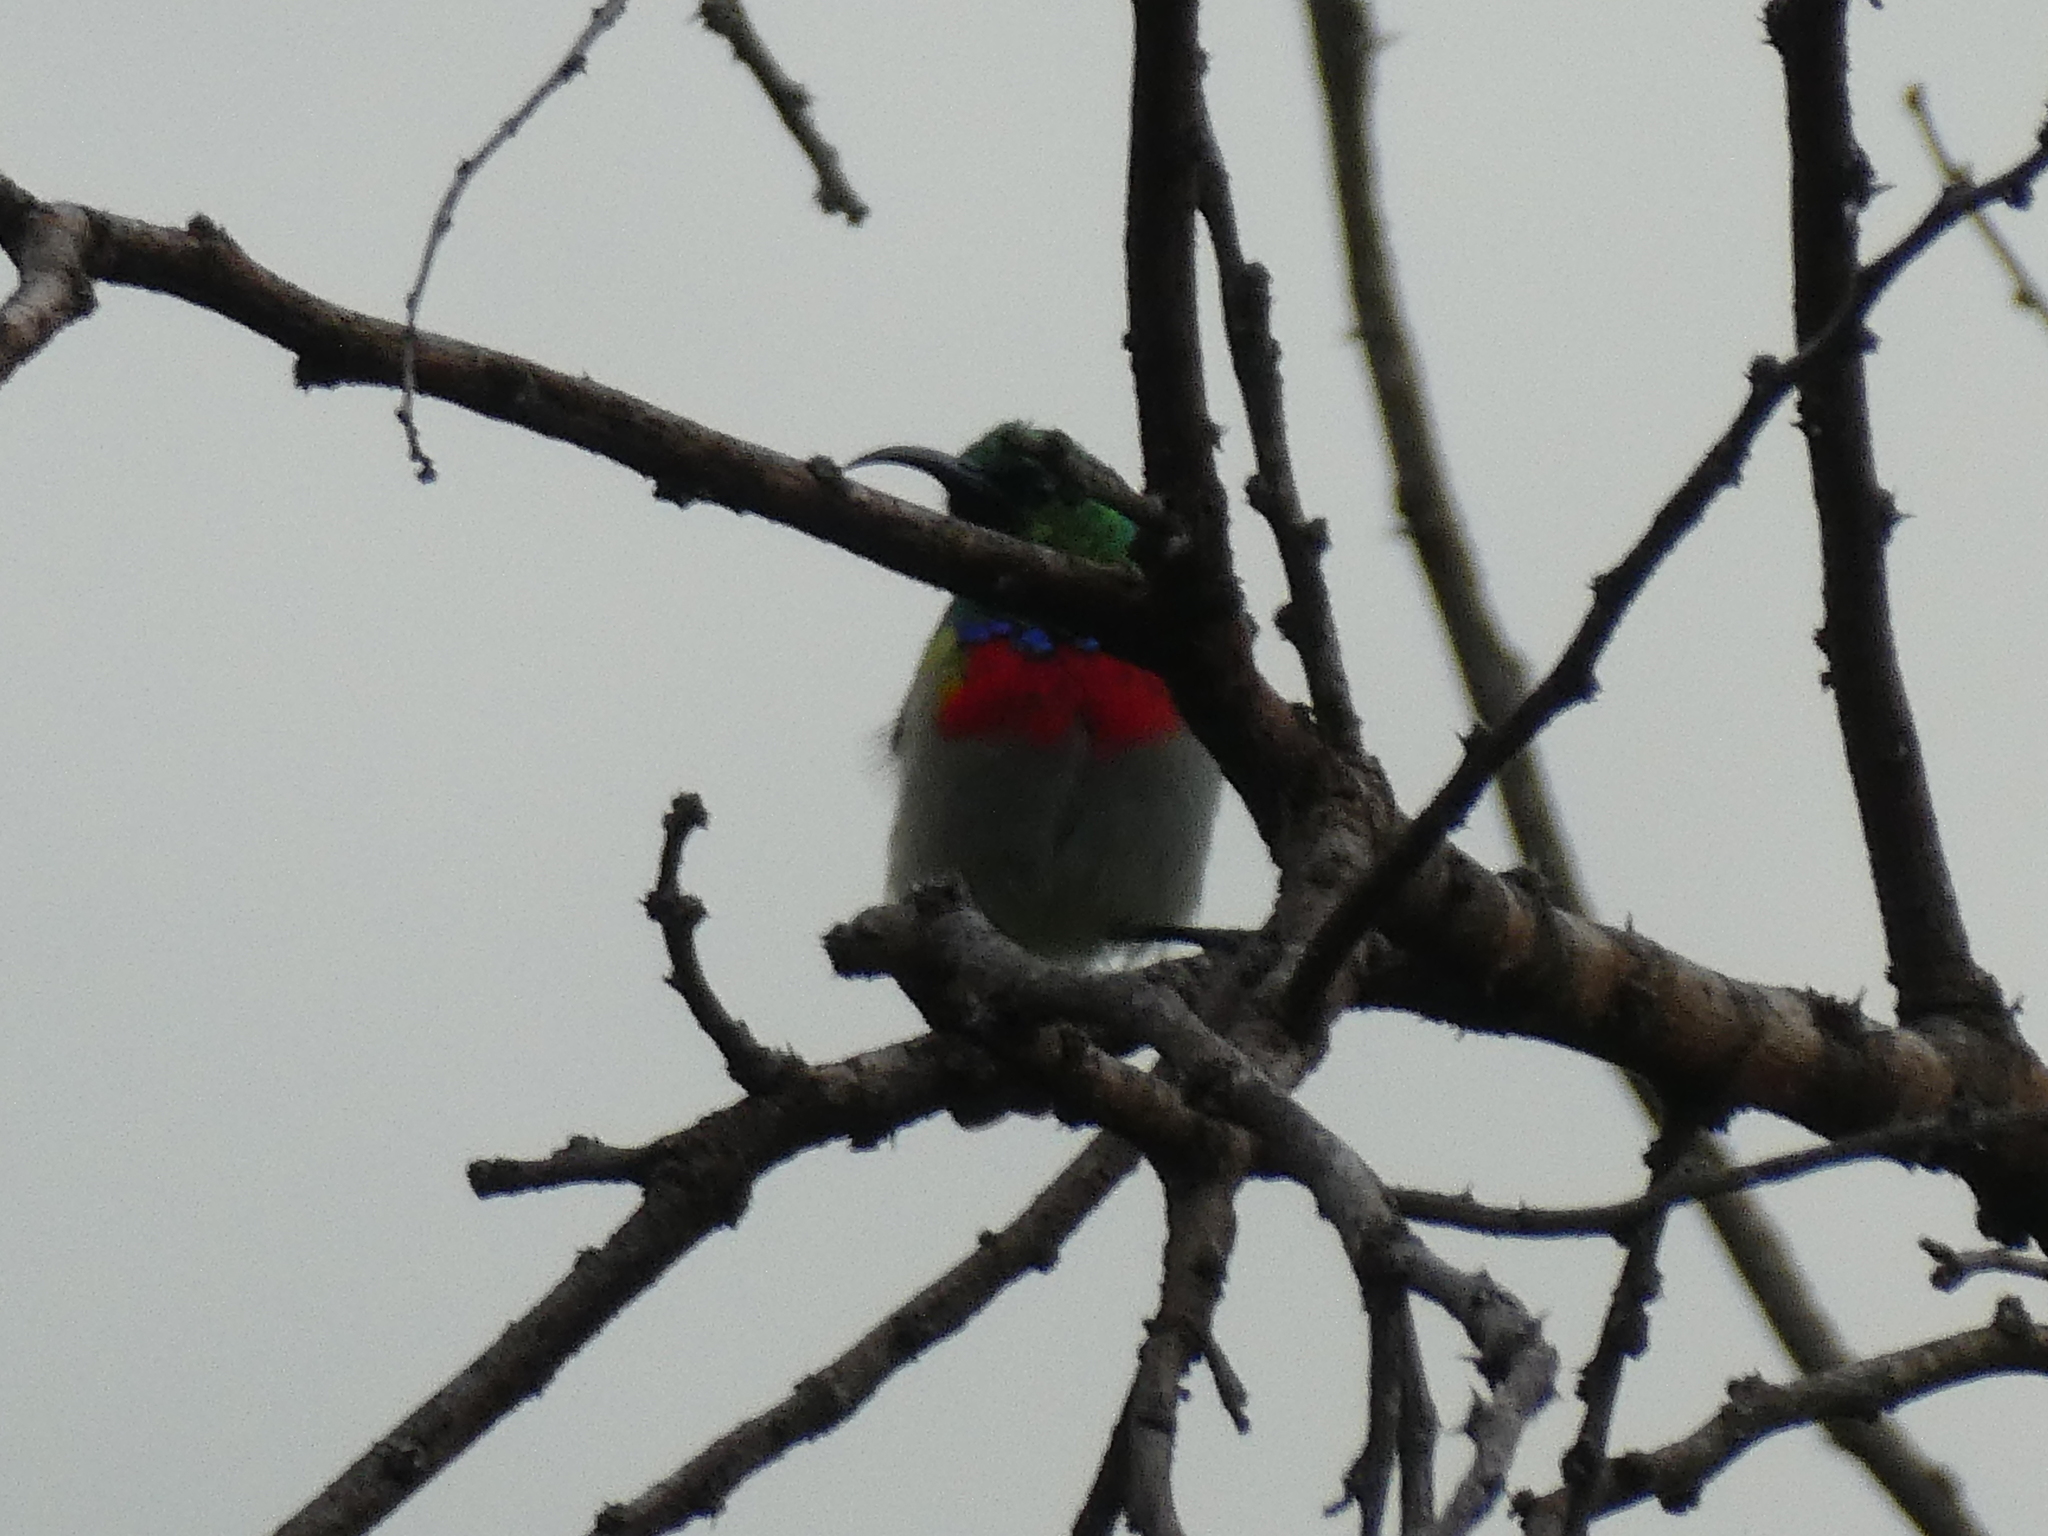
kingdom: Animalia
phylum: Chordata
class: Aves
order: Passeriformes
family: Nectariniidae
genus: Cinnyris
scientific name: Cinnyris manoensis
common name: Eastern miombo sunbird
